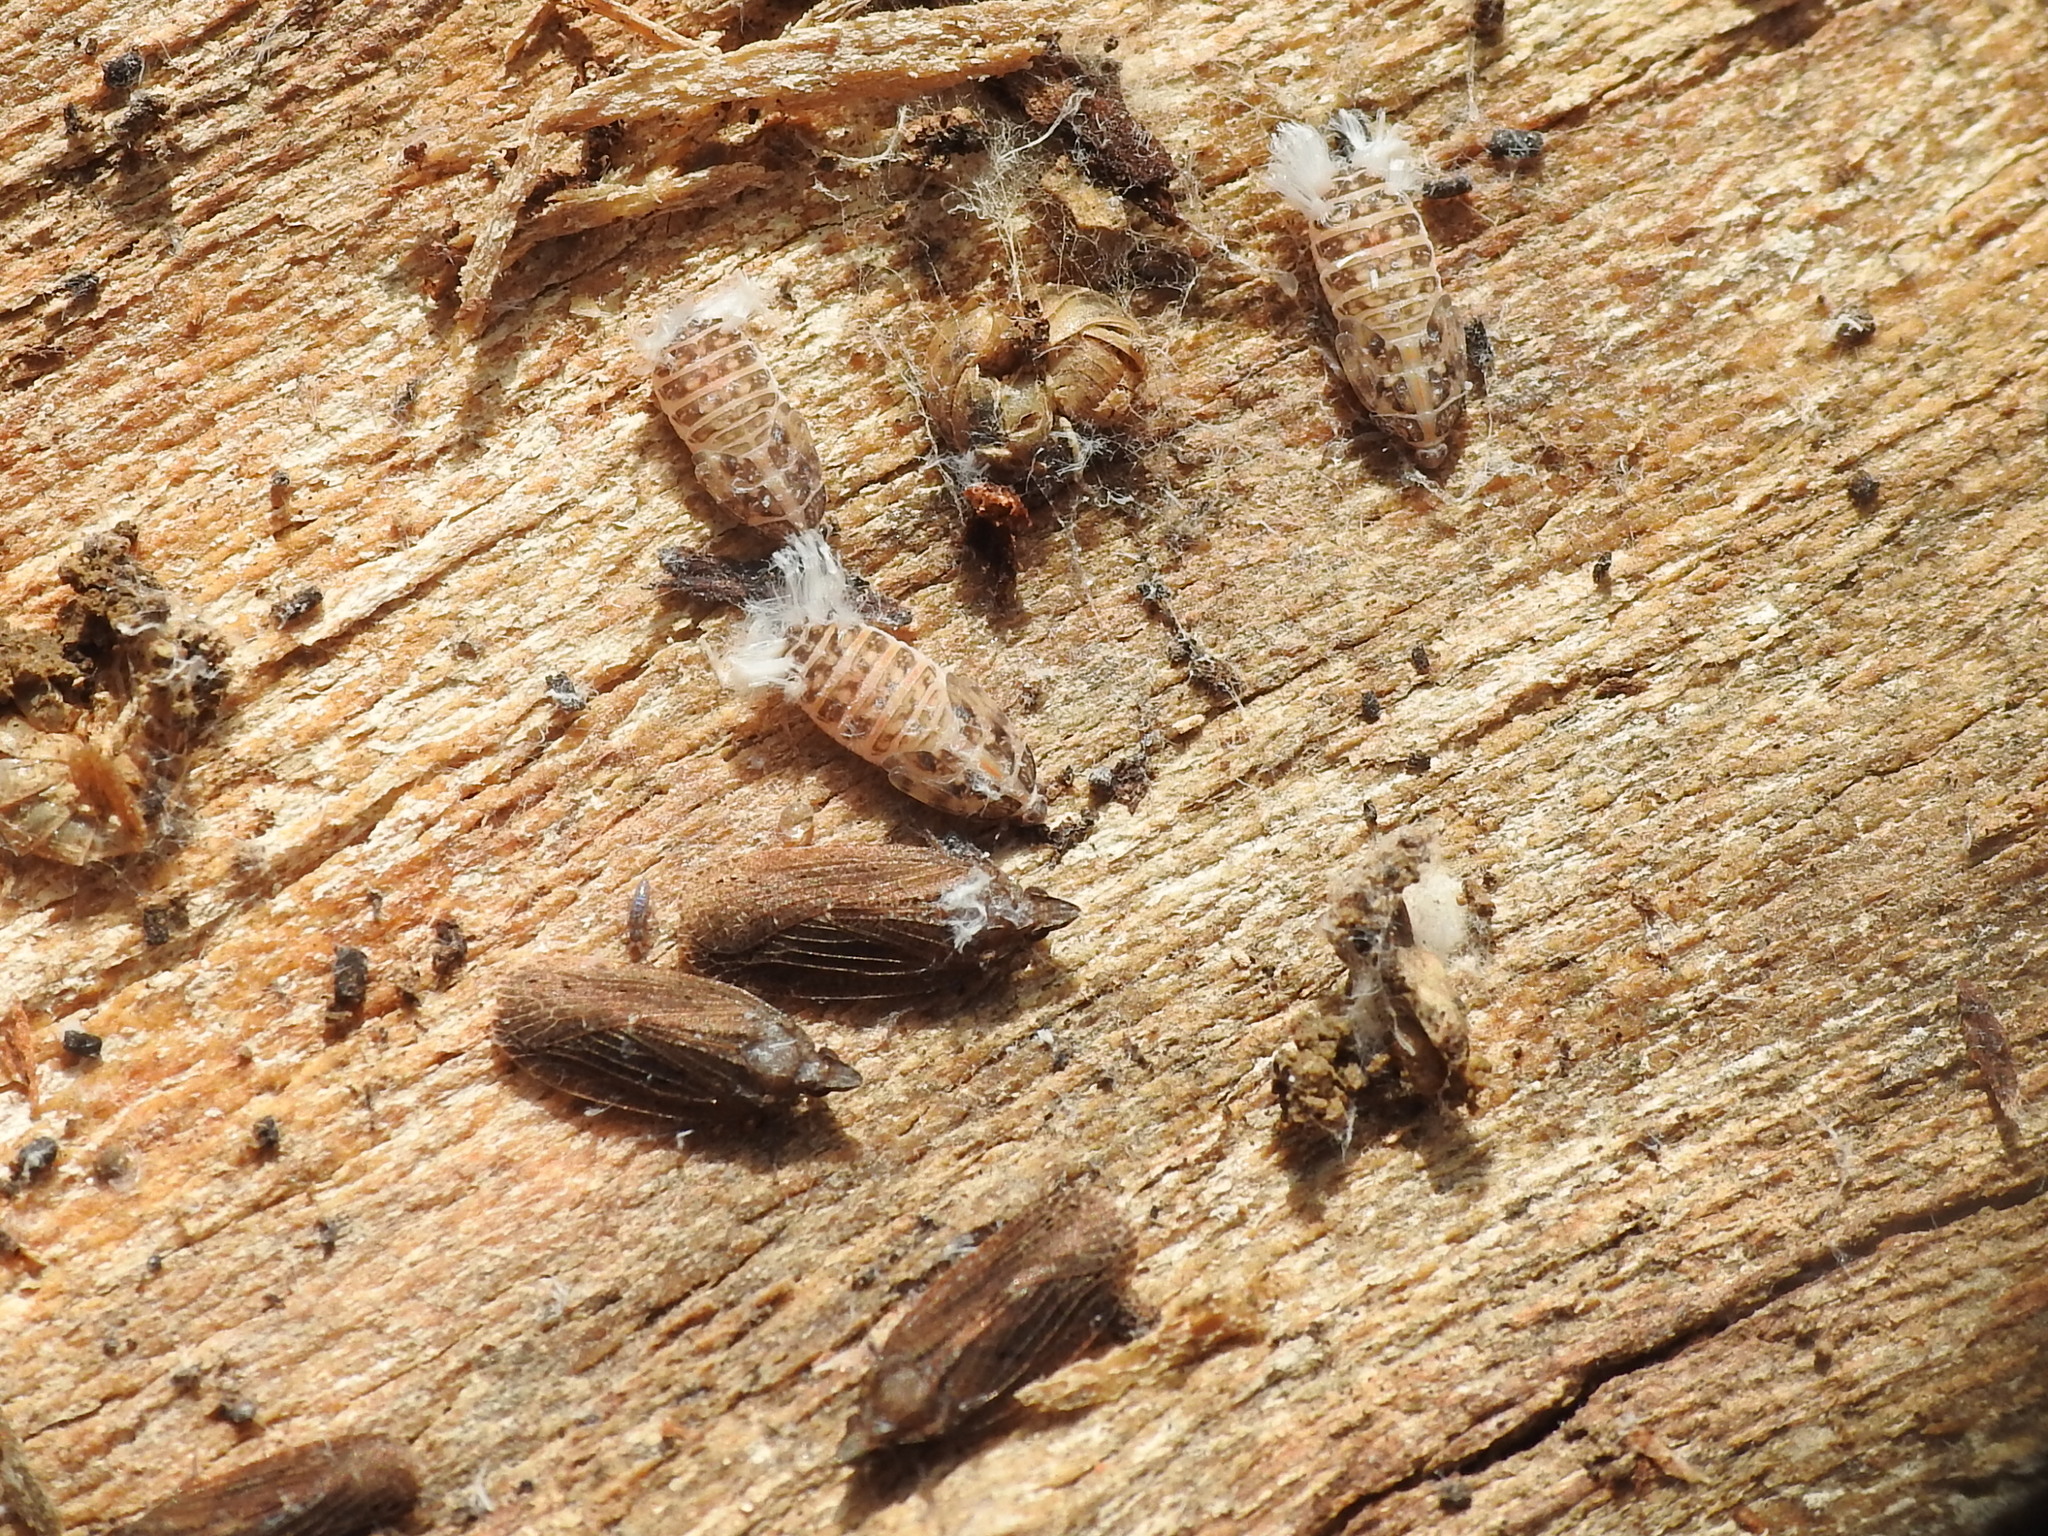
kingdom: Animalia
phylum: Arthropoda
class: Insecta
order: Hemiptera
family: Achilidae
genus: Cixidia
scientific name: Cixidia fusca
